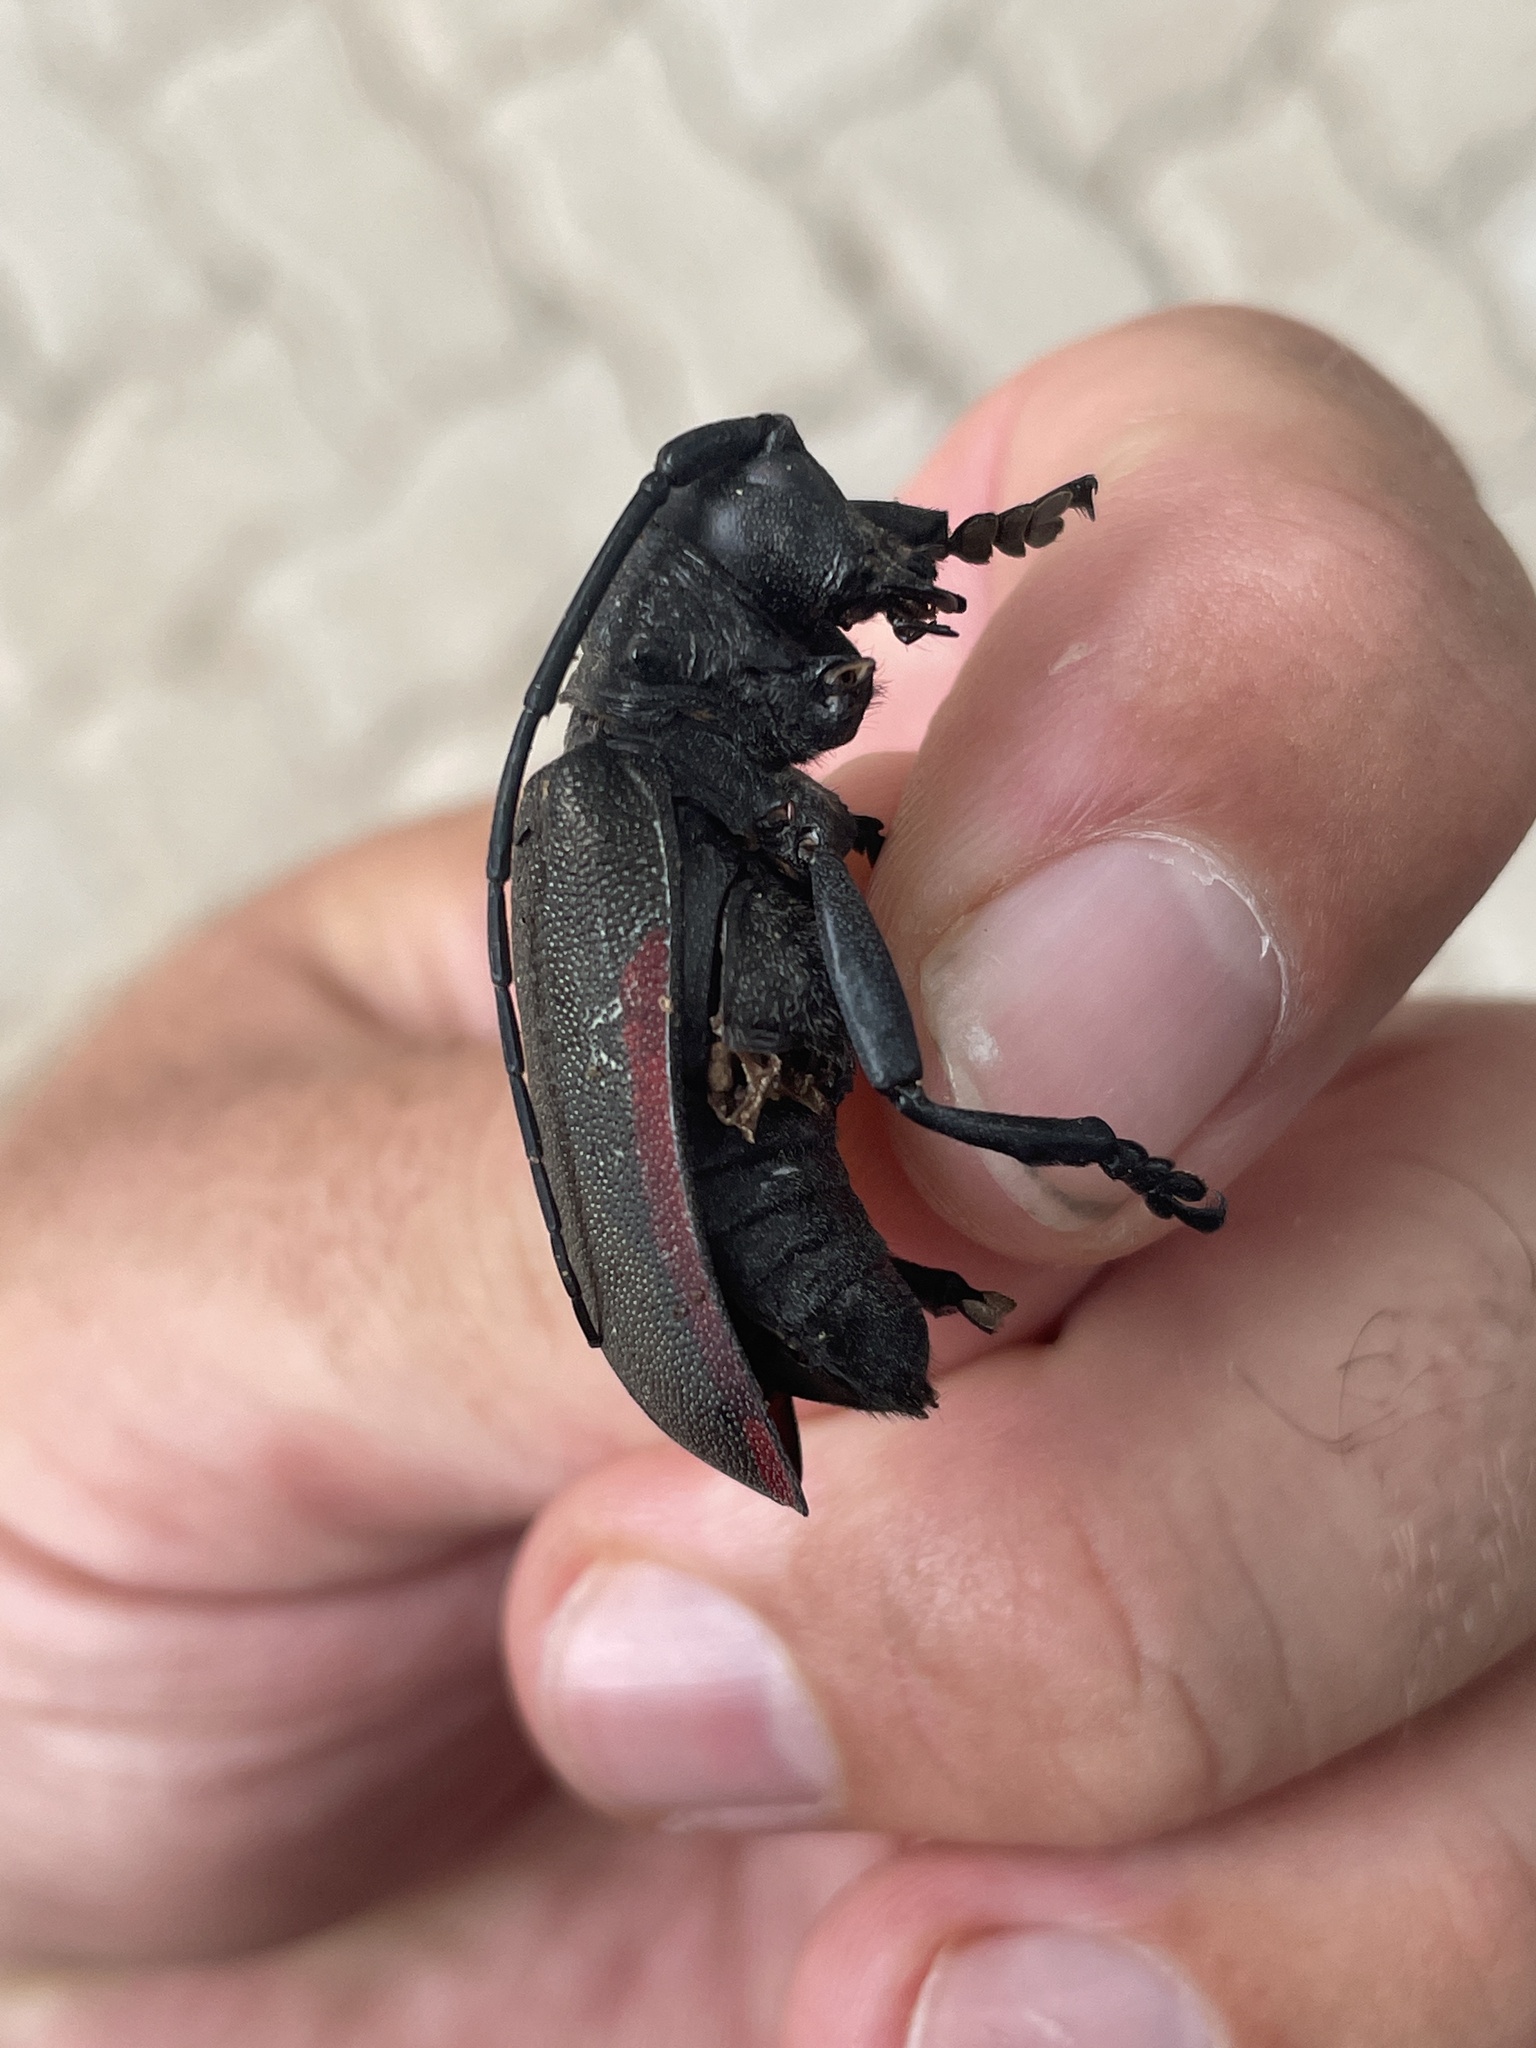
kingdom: Animalia
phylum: Arthropoda
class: Insecta
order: Coleoptera
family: Cerambycidae
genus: Ceroplesis
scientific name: Ceroplesis ferrugator
